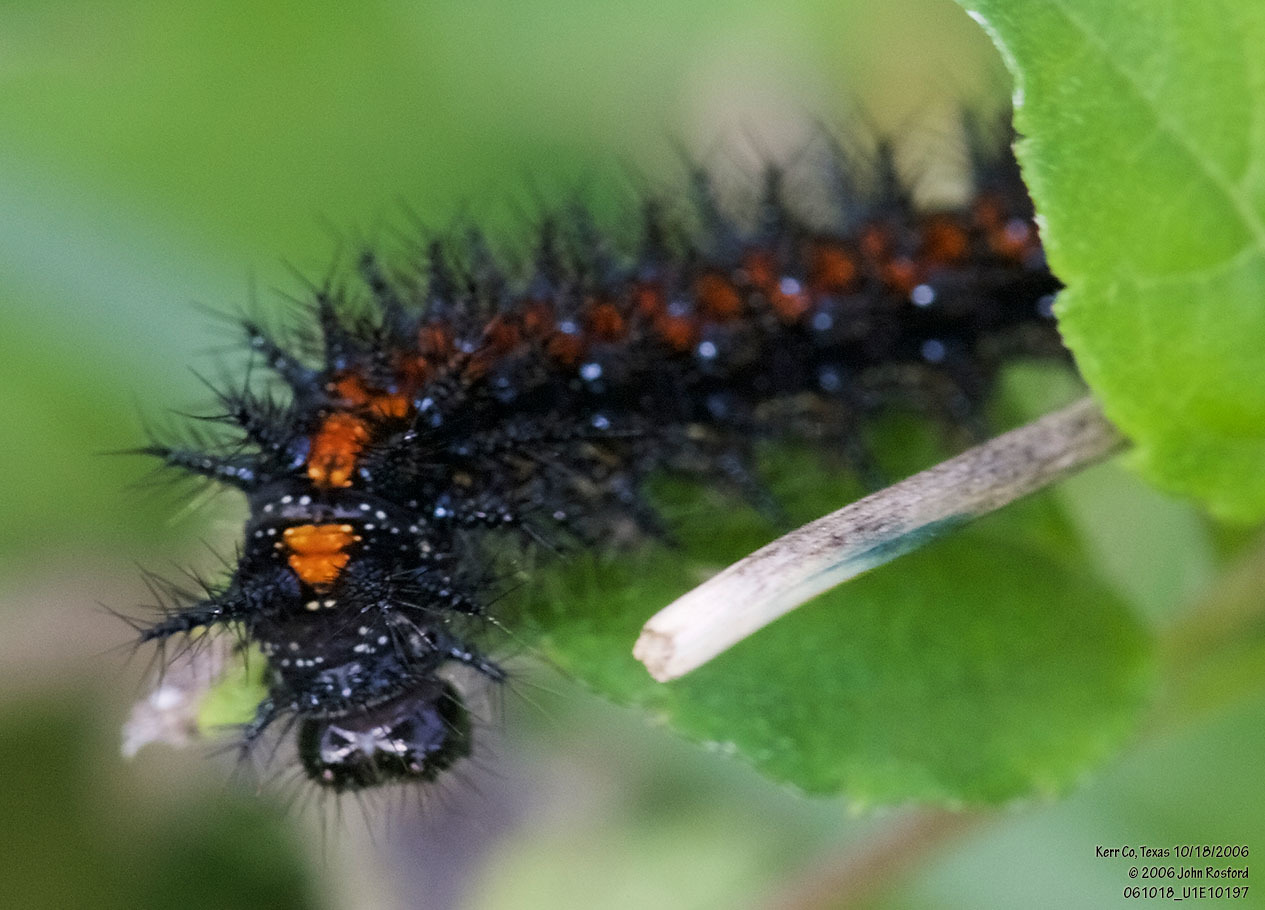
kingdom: Animalia
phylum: Arthropoda
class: Insecta
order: Lepidoptera
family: Nymphalidae
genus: Chlosyne
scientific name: Chlosyne lacinia
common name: Bordered patch
